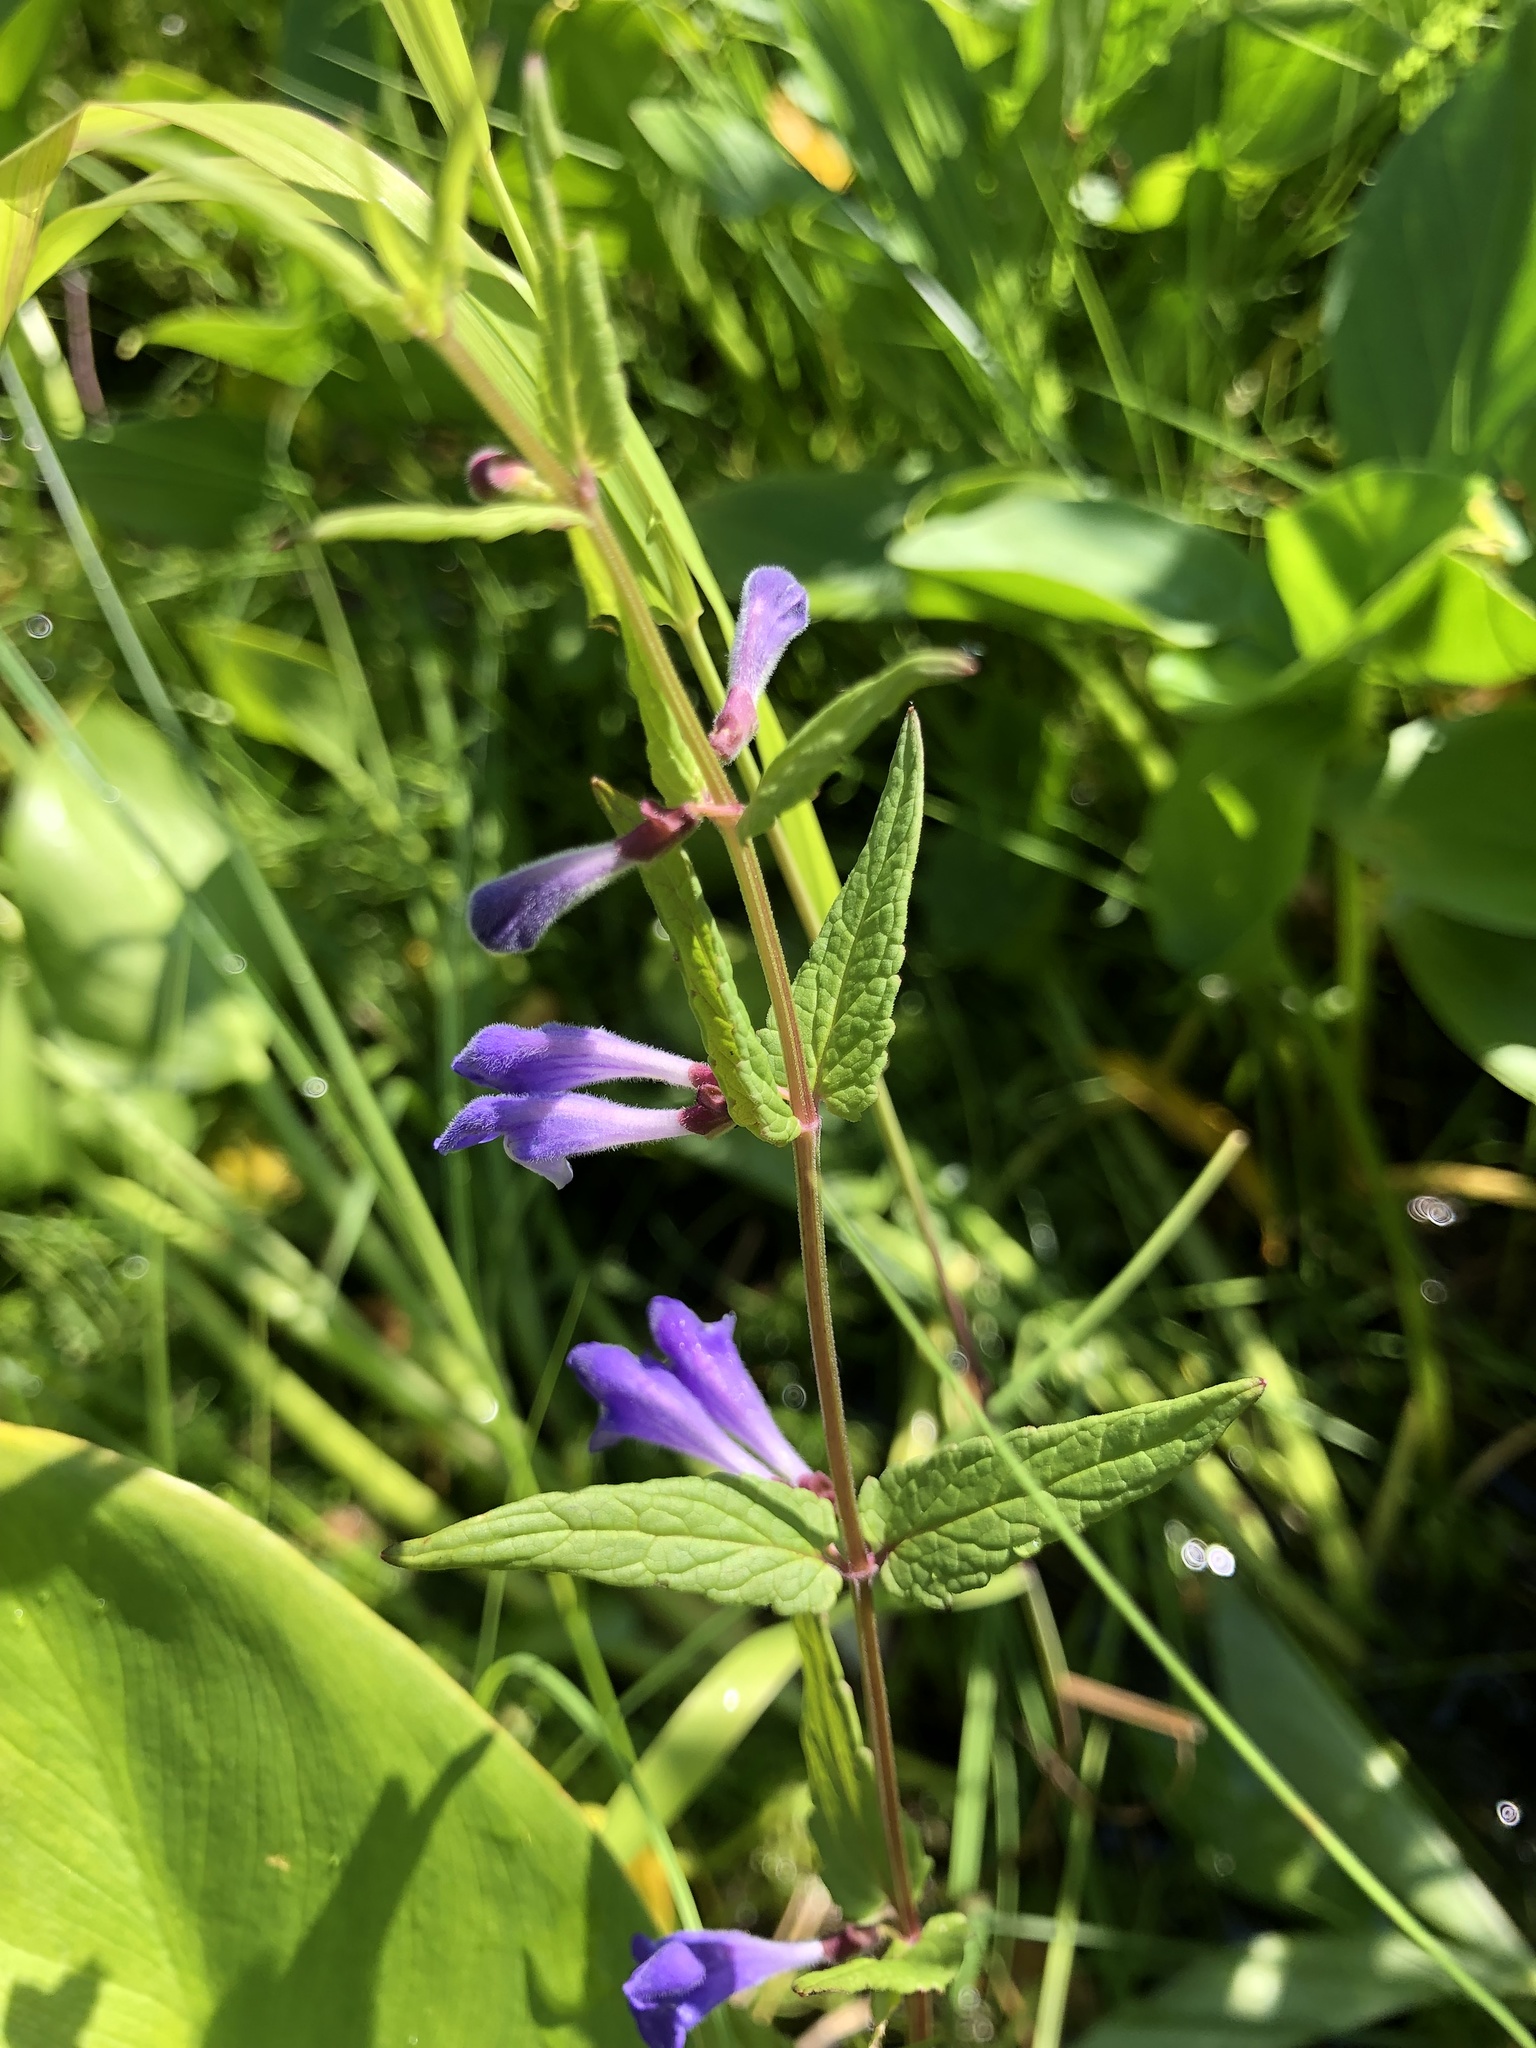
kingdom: Plantae
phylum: Tracheophyta
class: Magnoliopsida
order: Lamiales
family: Lamiaceae
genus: Scutellaria
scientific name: Scutellaria galericulata
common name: Skullcap
